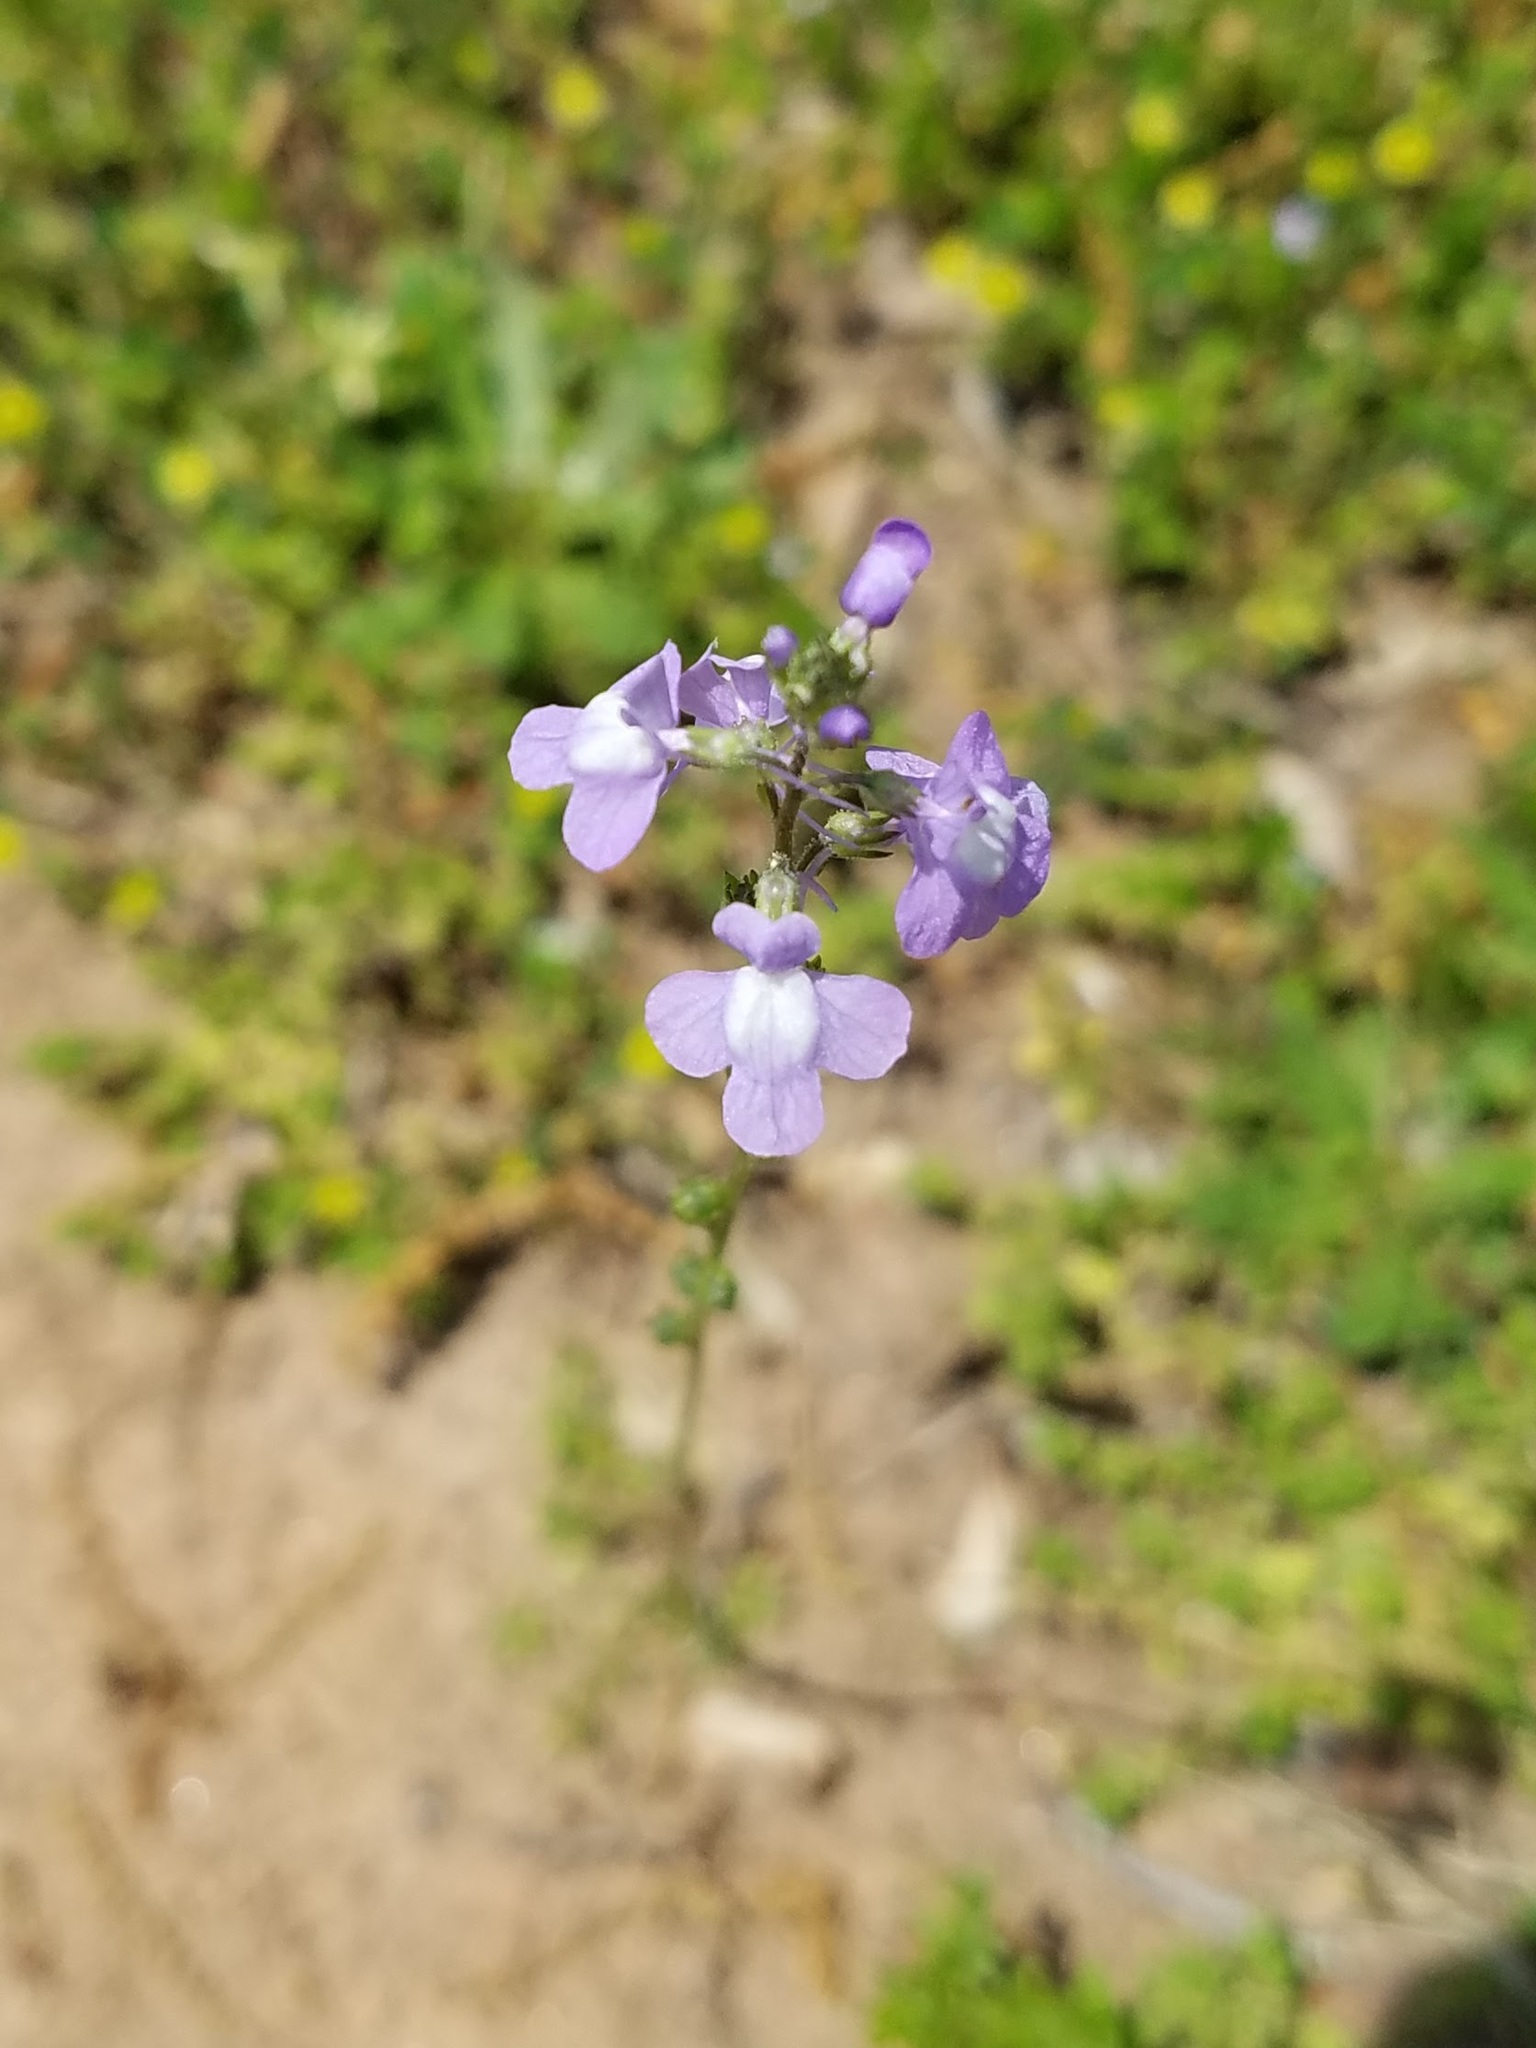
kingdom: Plantae
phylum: Tracheophyta
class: Magnoliopsida
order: Lamiales
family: Plantaginaceae
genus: Nuttallanthus
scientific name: Nuttallanthus canadensis
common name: Blue toadflax
